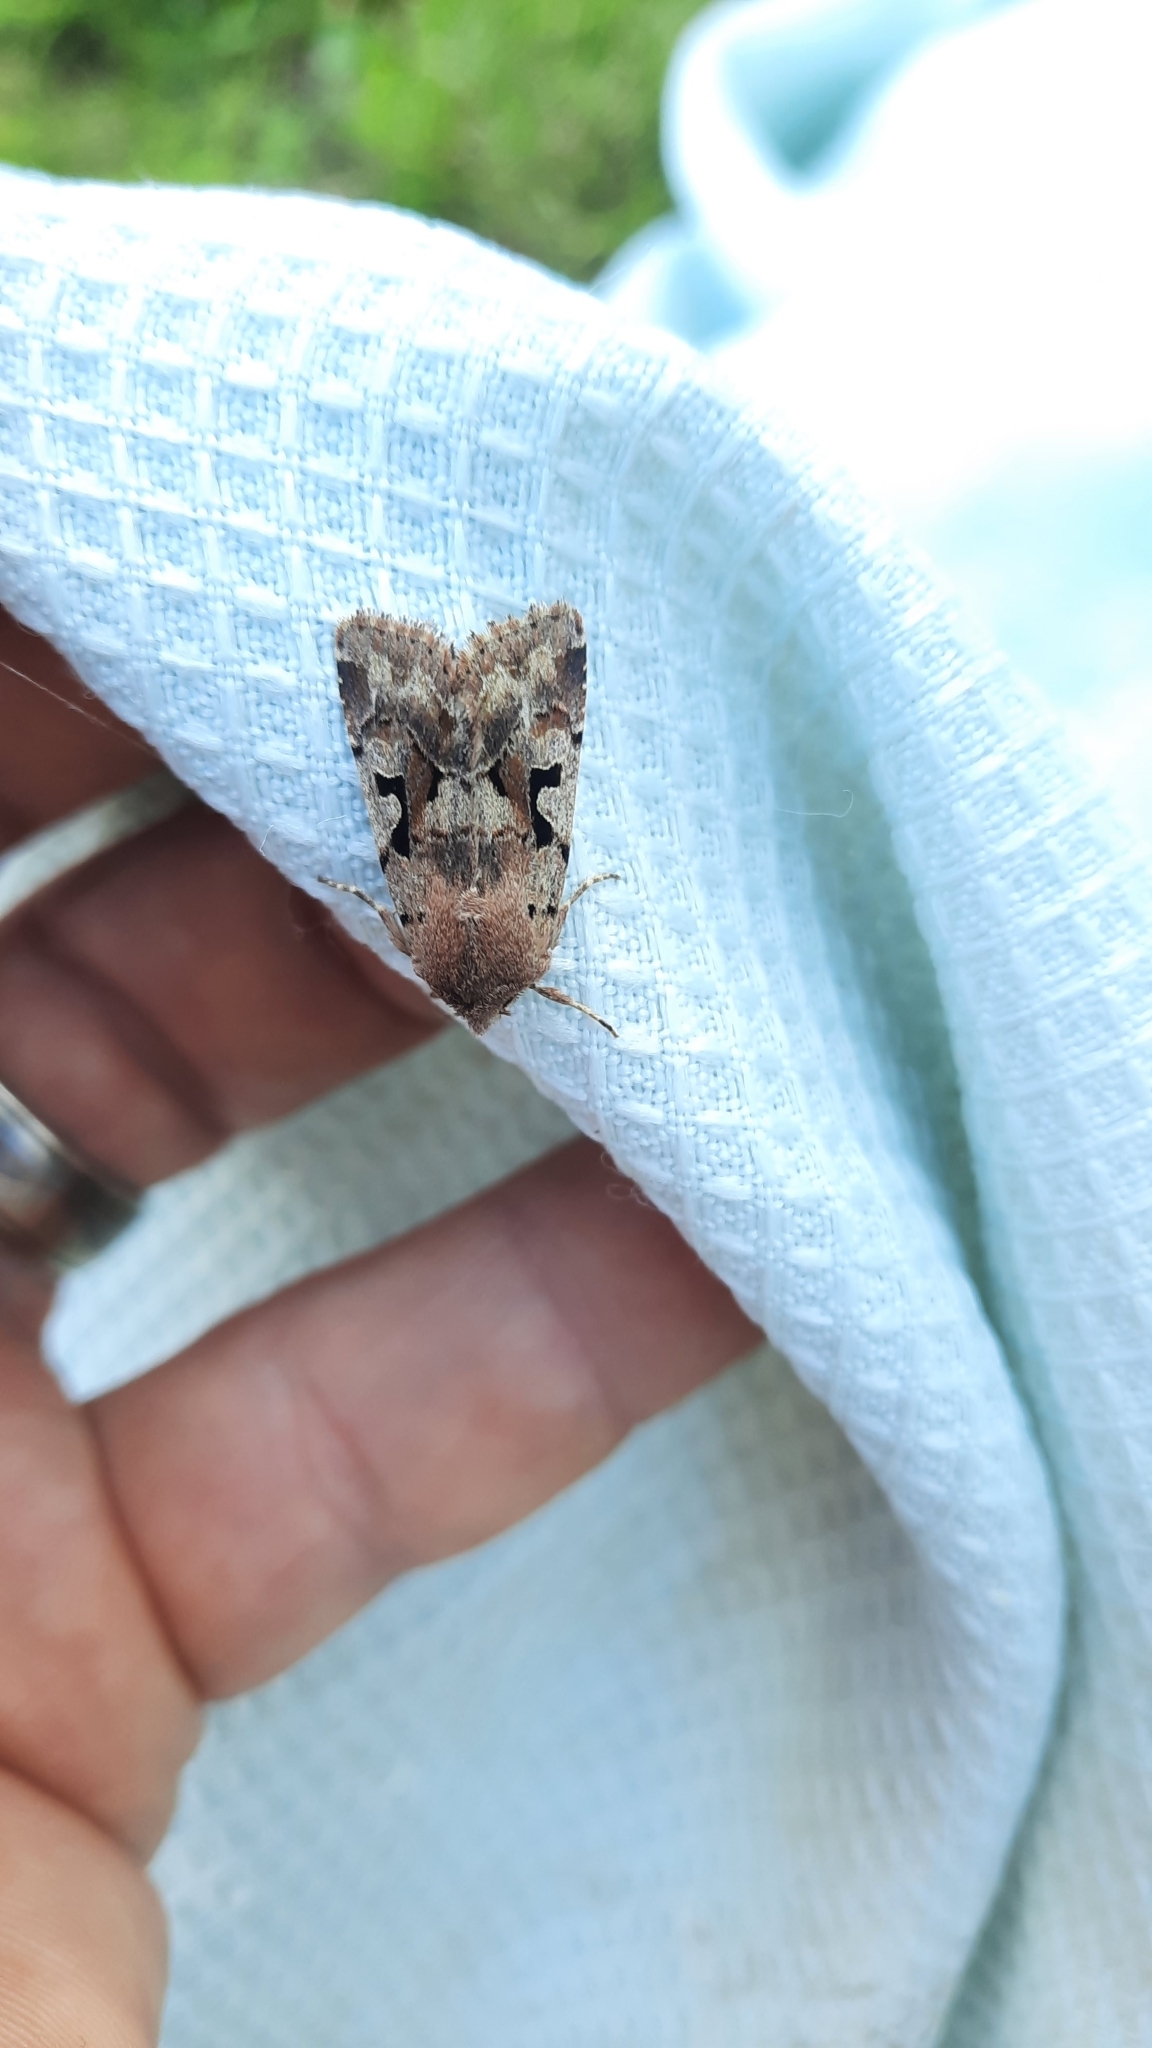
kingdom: Animalia
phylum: Arthropoda
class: Insecta
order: Lepidoptera
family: Noctuidae
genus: Orthosia
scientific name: Orthosia gothica
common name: Hebrew character
